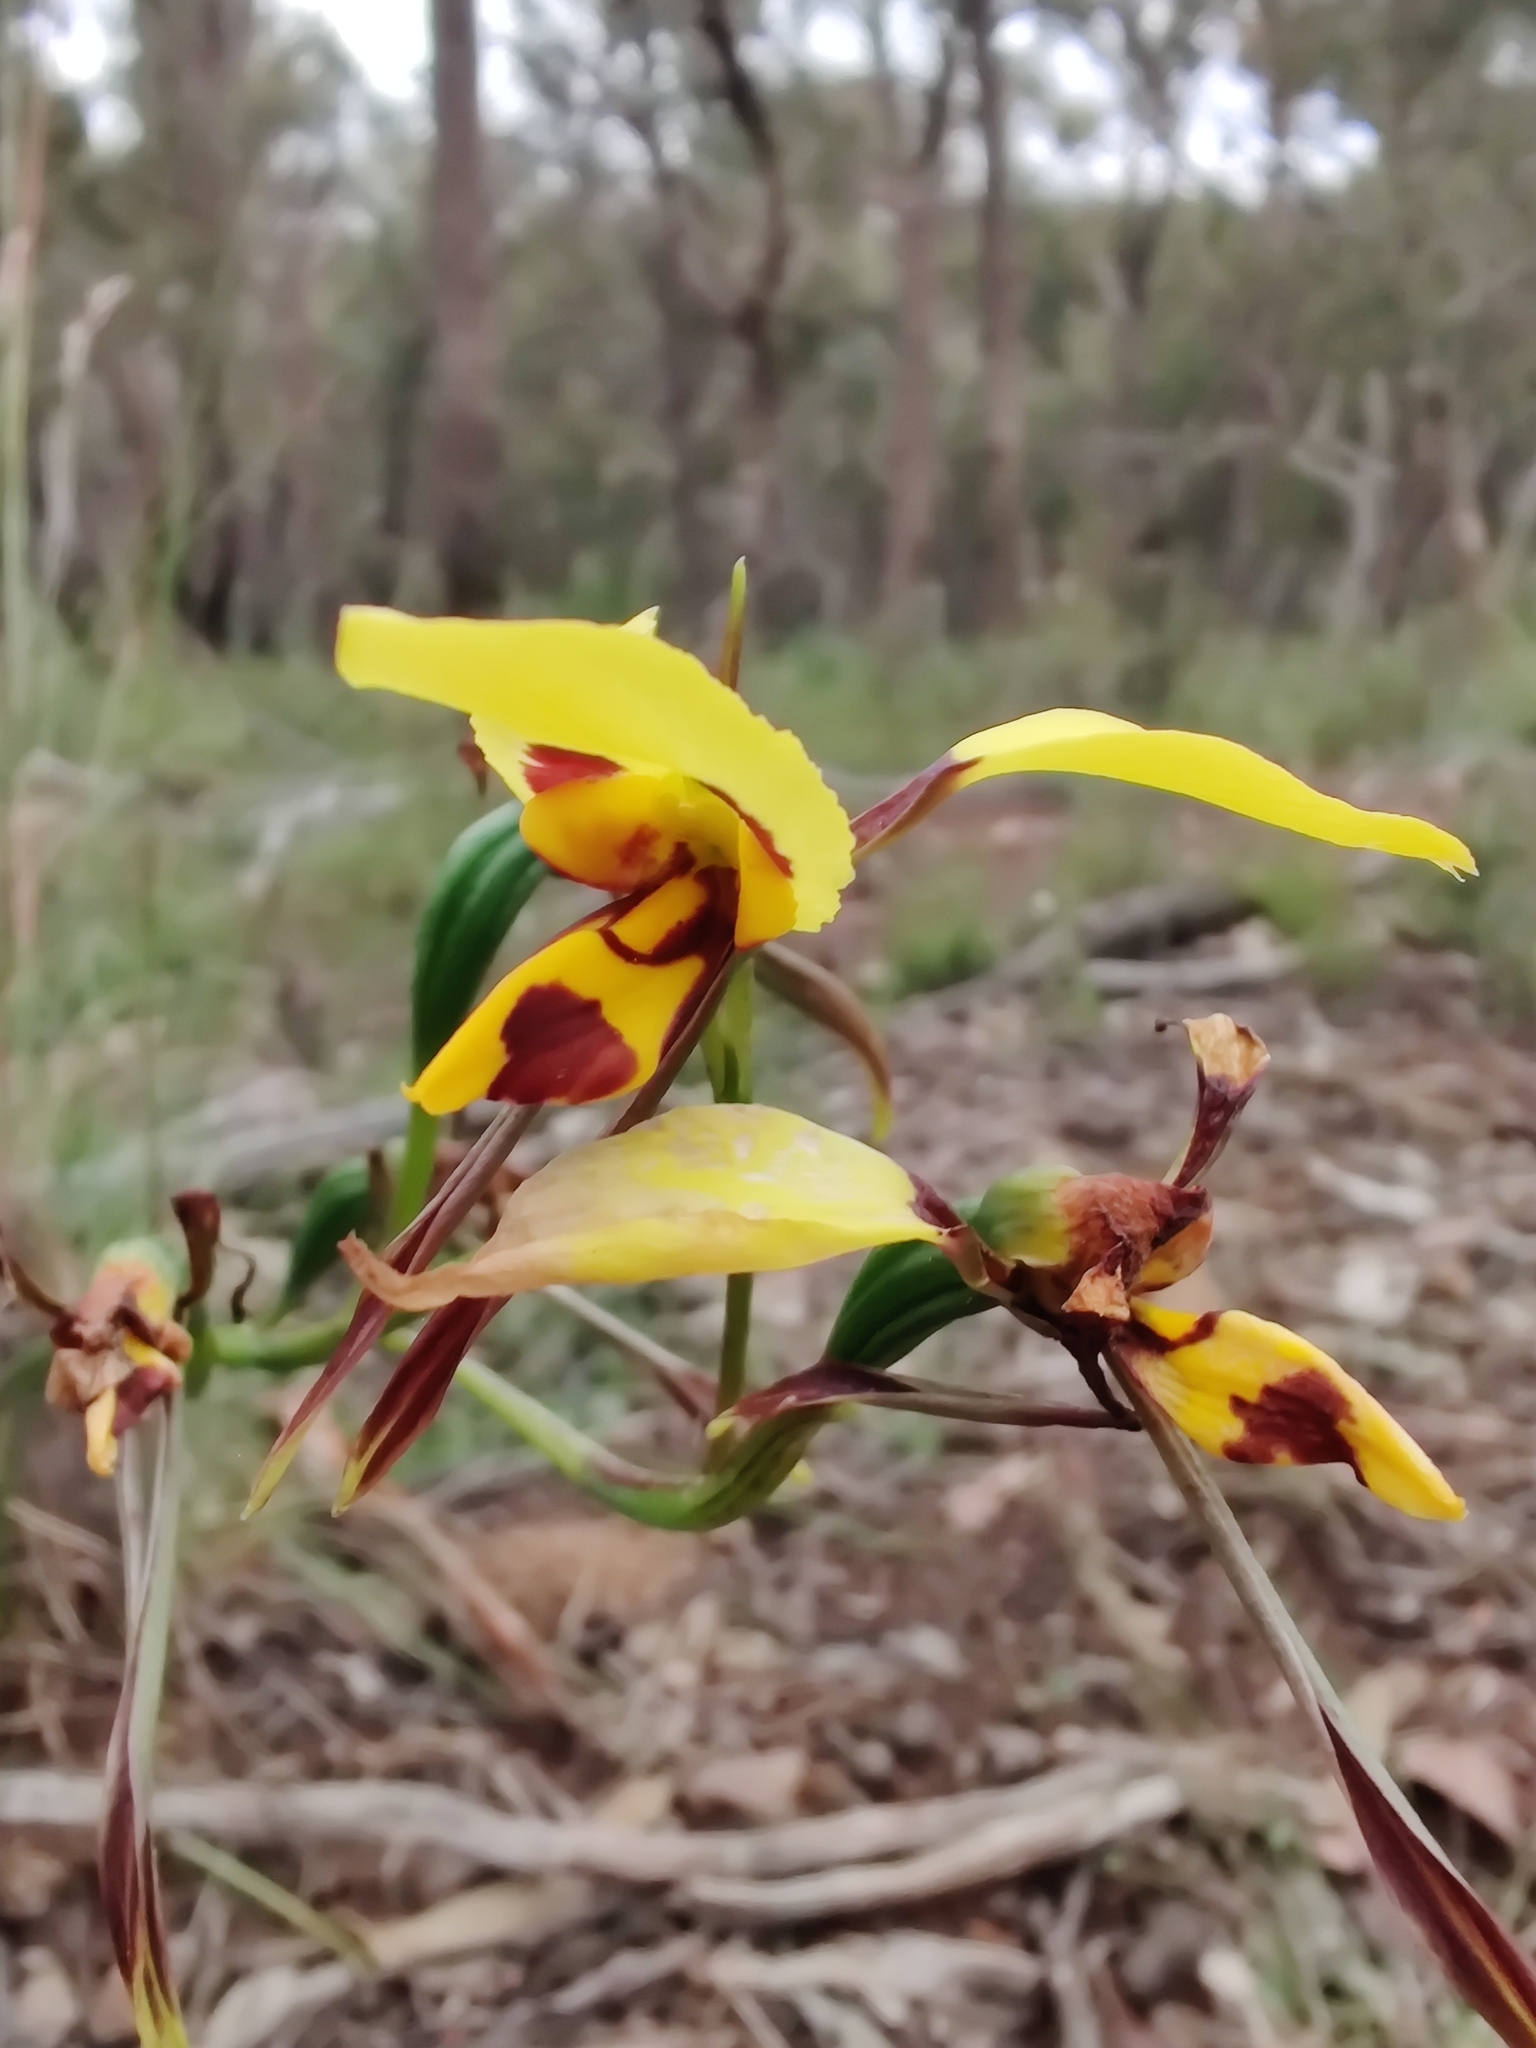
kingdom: Plantae
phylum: Tracheophyta
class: Liliopsida
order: Asparagales
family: Orchidaceae
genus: Diuris
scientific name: Diuris sulphurea
